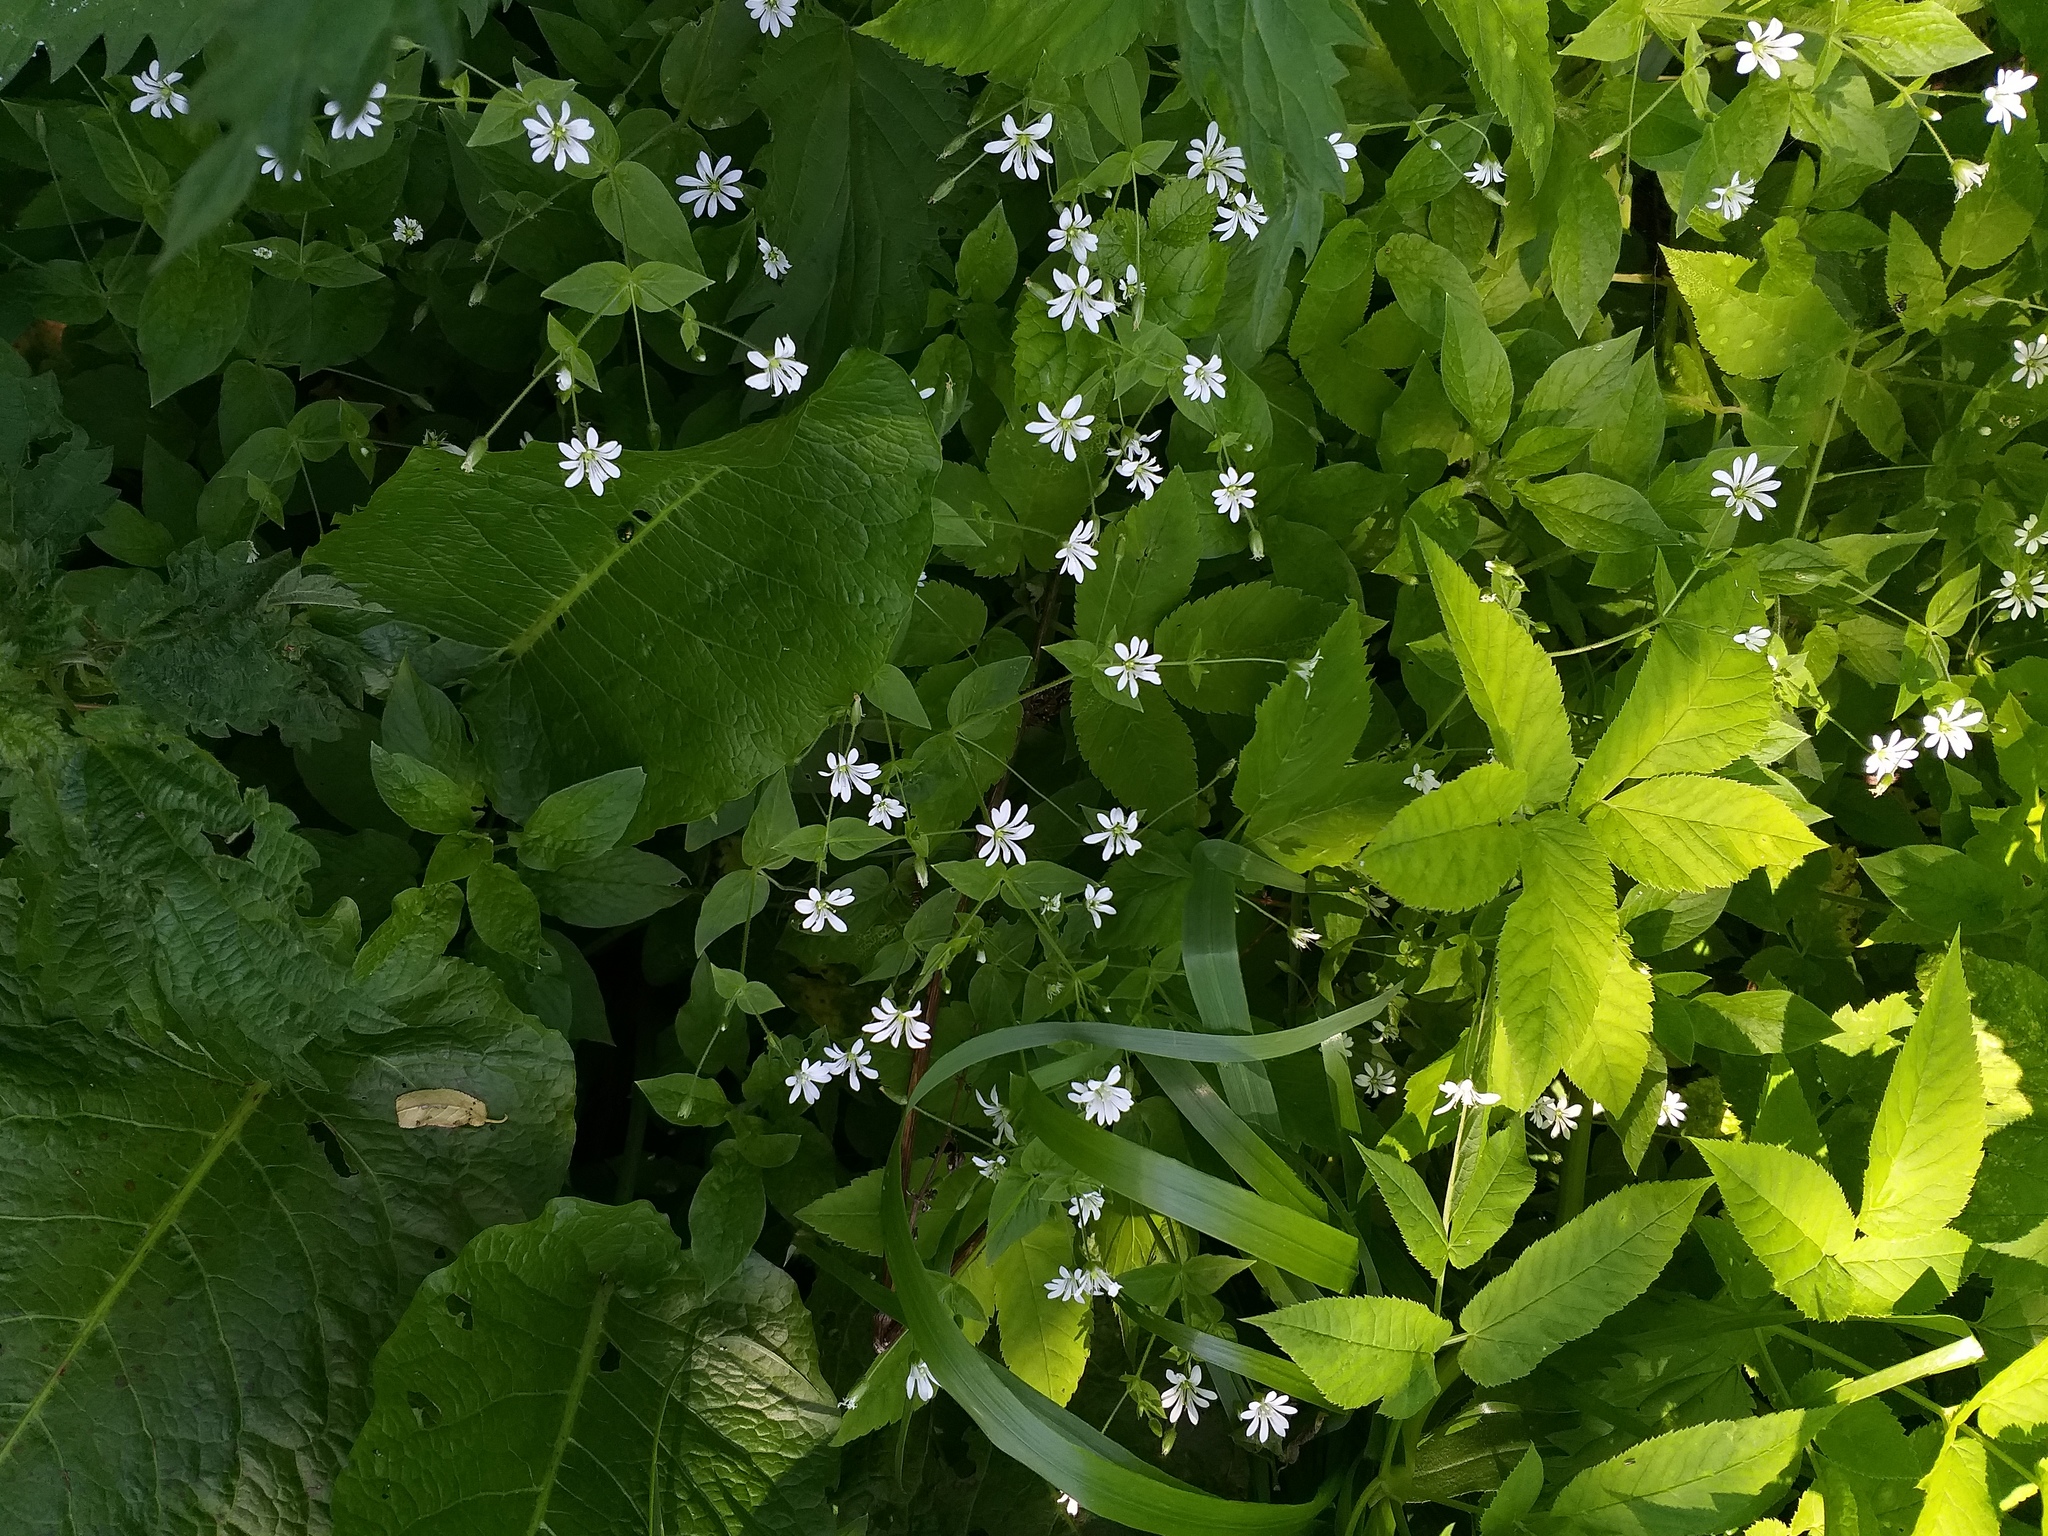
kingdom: Plantae
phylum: Tracheophyta
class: Magnoliopsida
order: Caryophyllales
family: Caryophyllaceae
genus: Stellaria
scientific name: Stellaria nemorum
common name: Wood stitchwort
